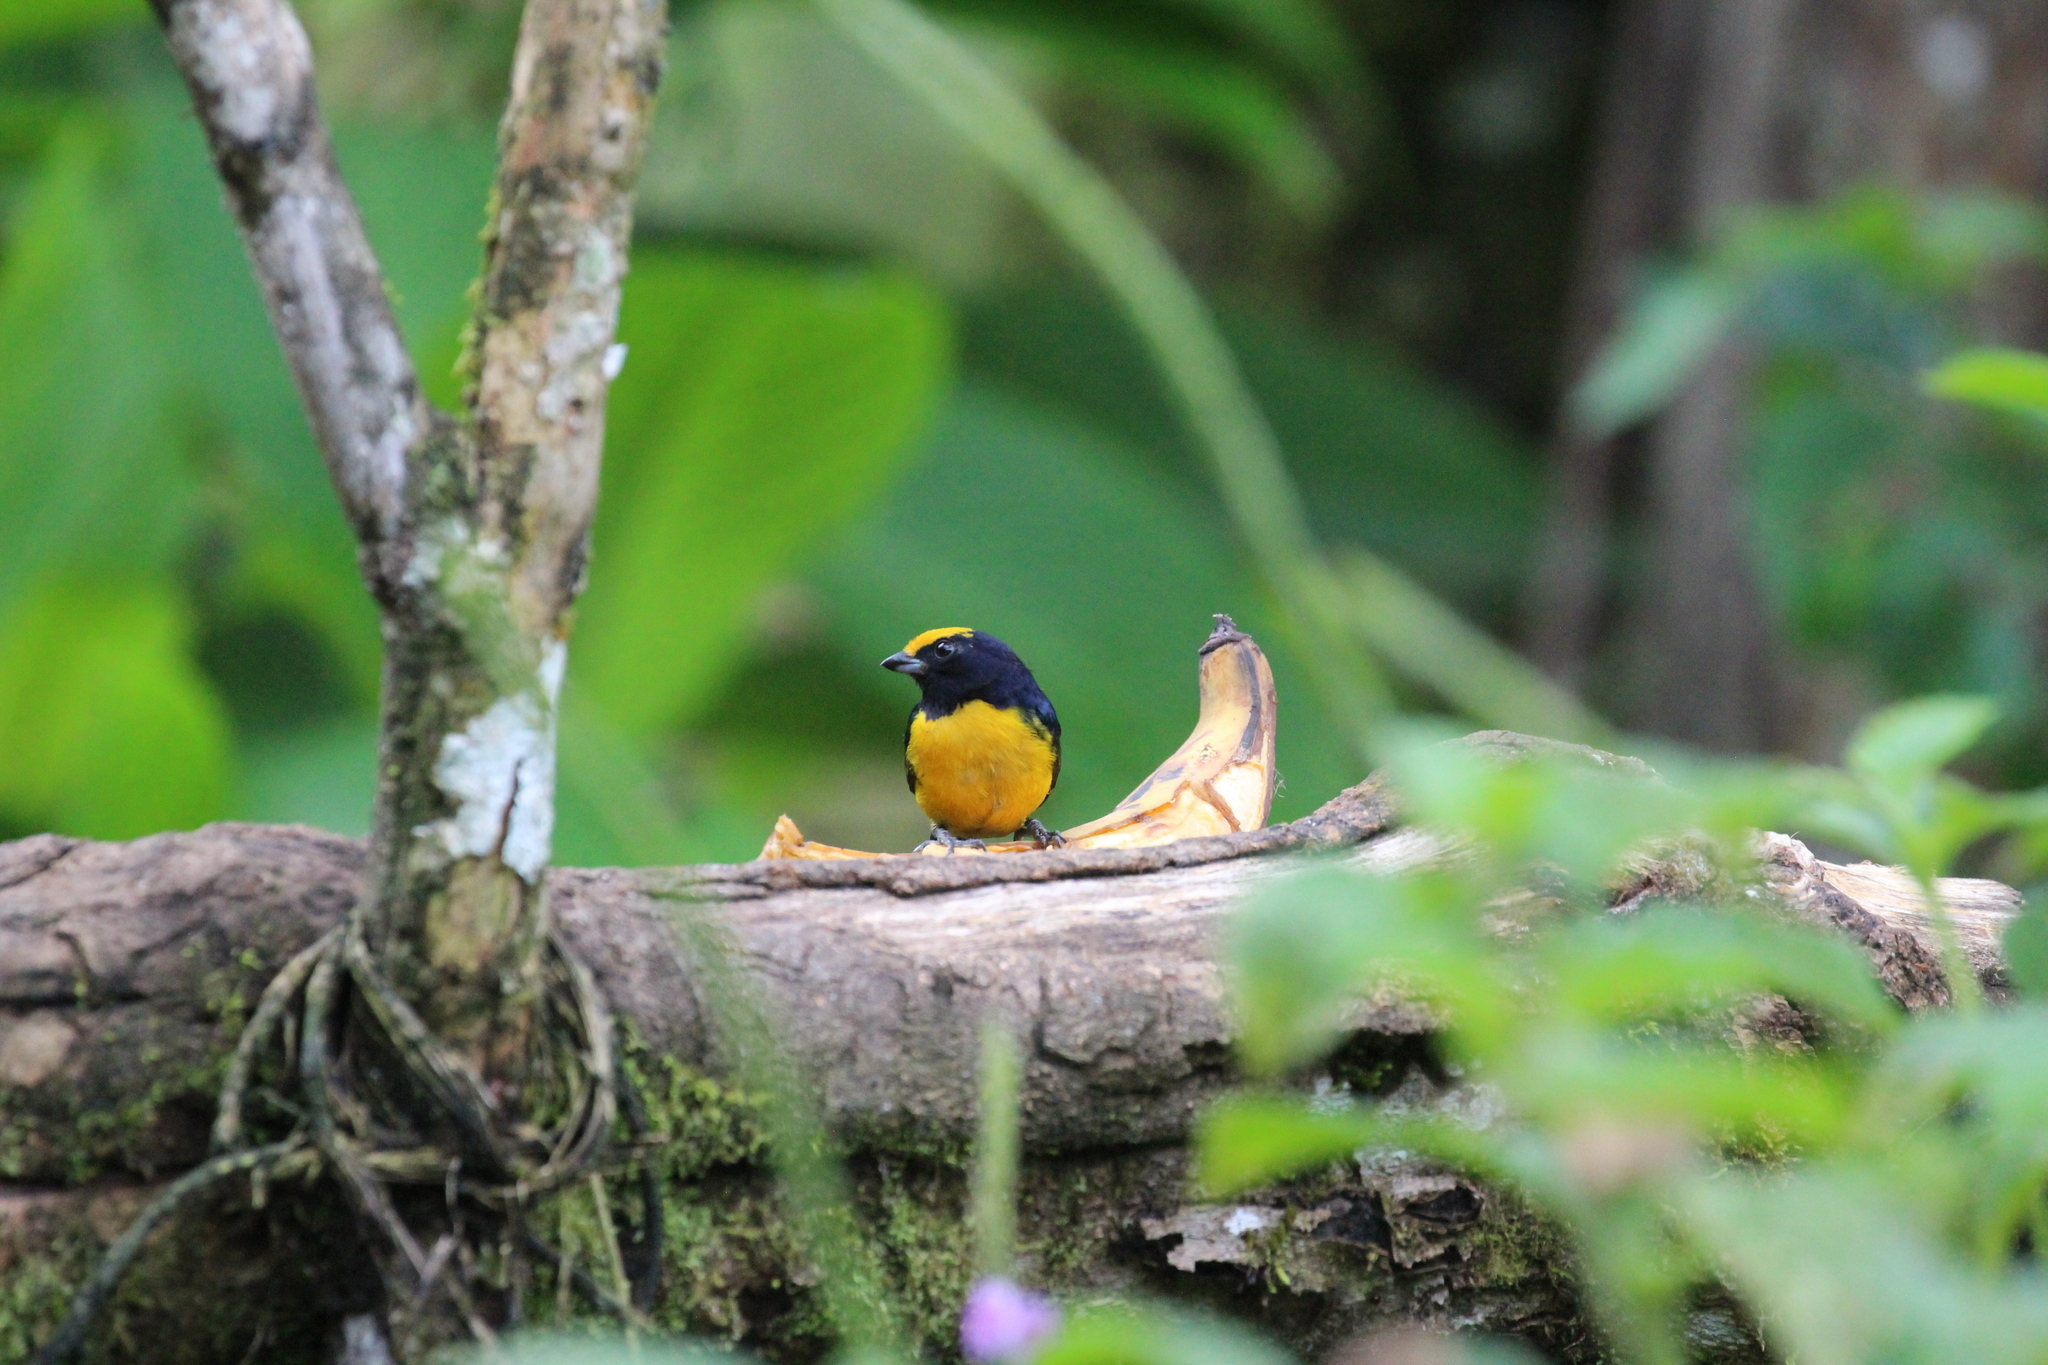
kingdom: Animalia
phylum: Chordata
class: Aves
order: Passeriformes
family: Fringillidae
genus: Euphonia
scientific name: Euphonia xanthogaster
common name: Orange-bellied euphonia
